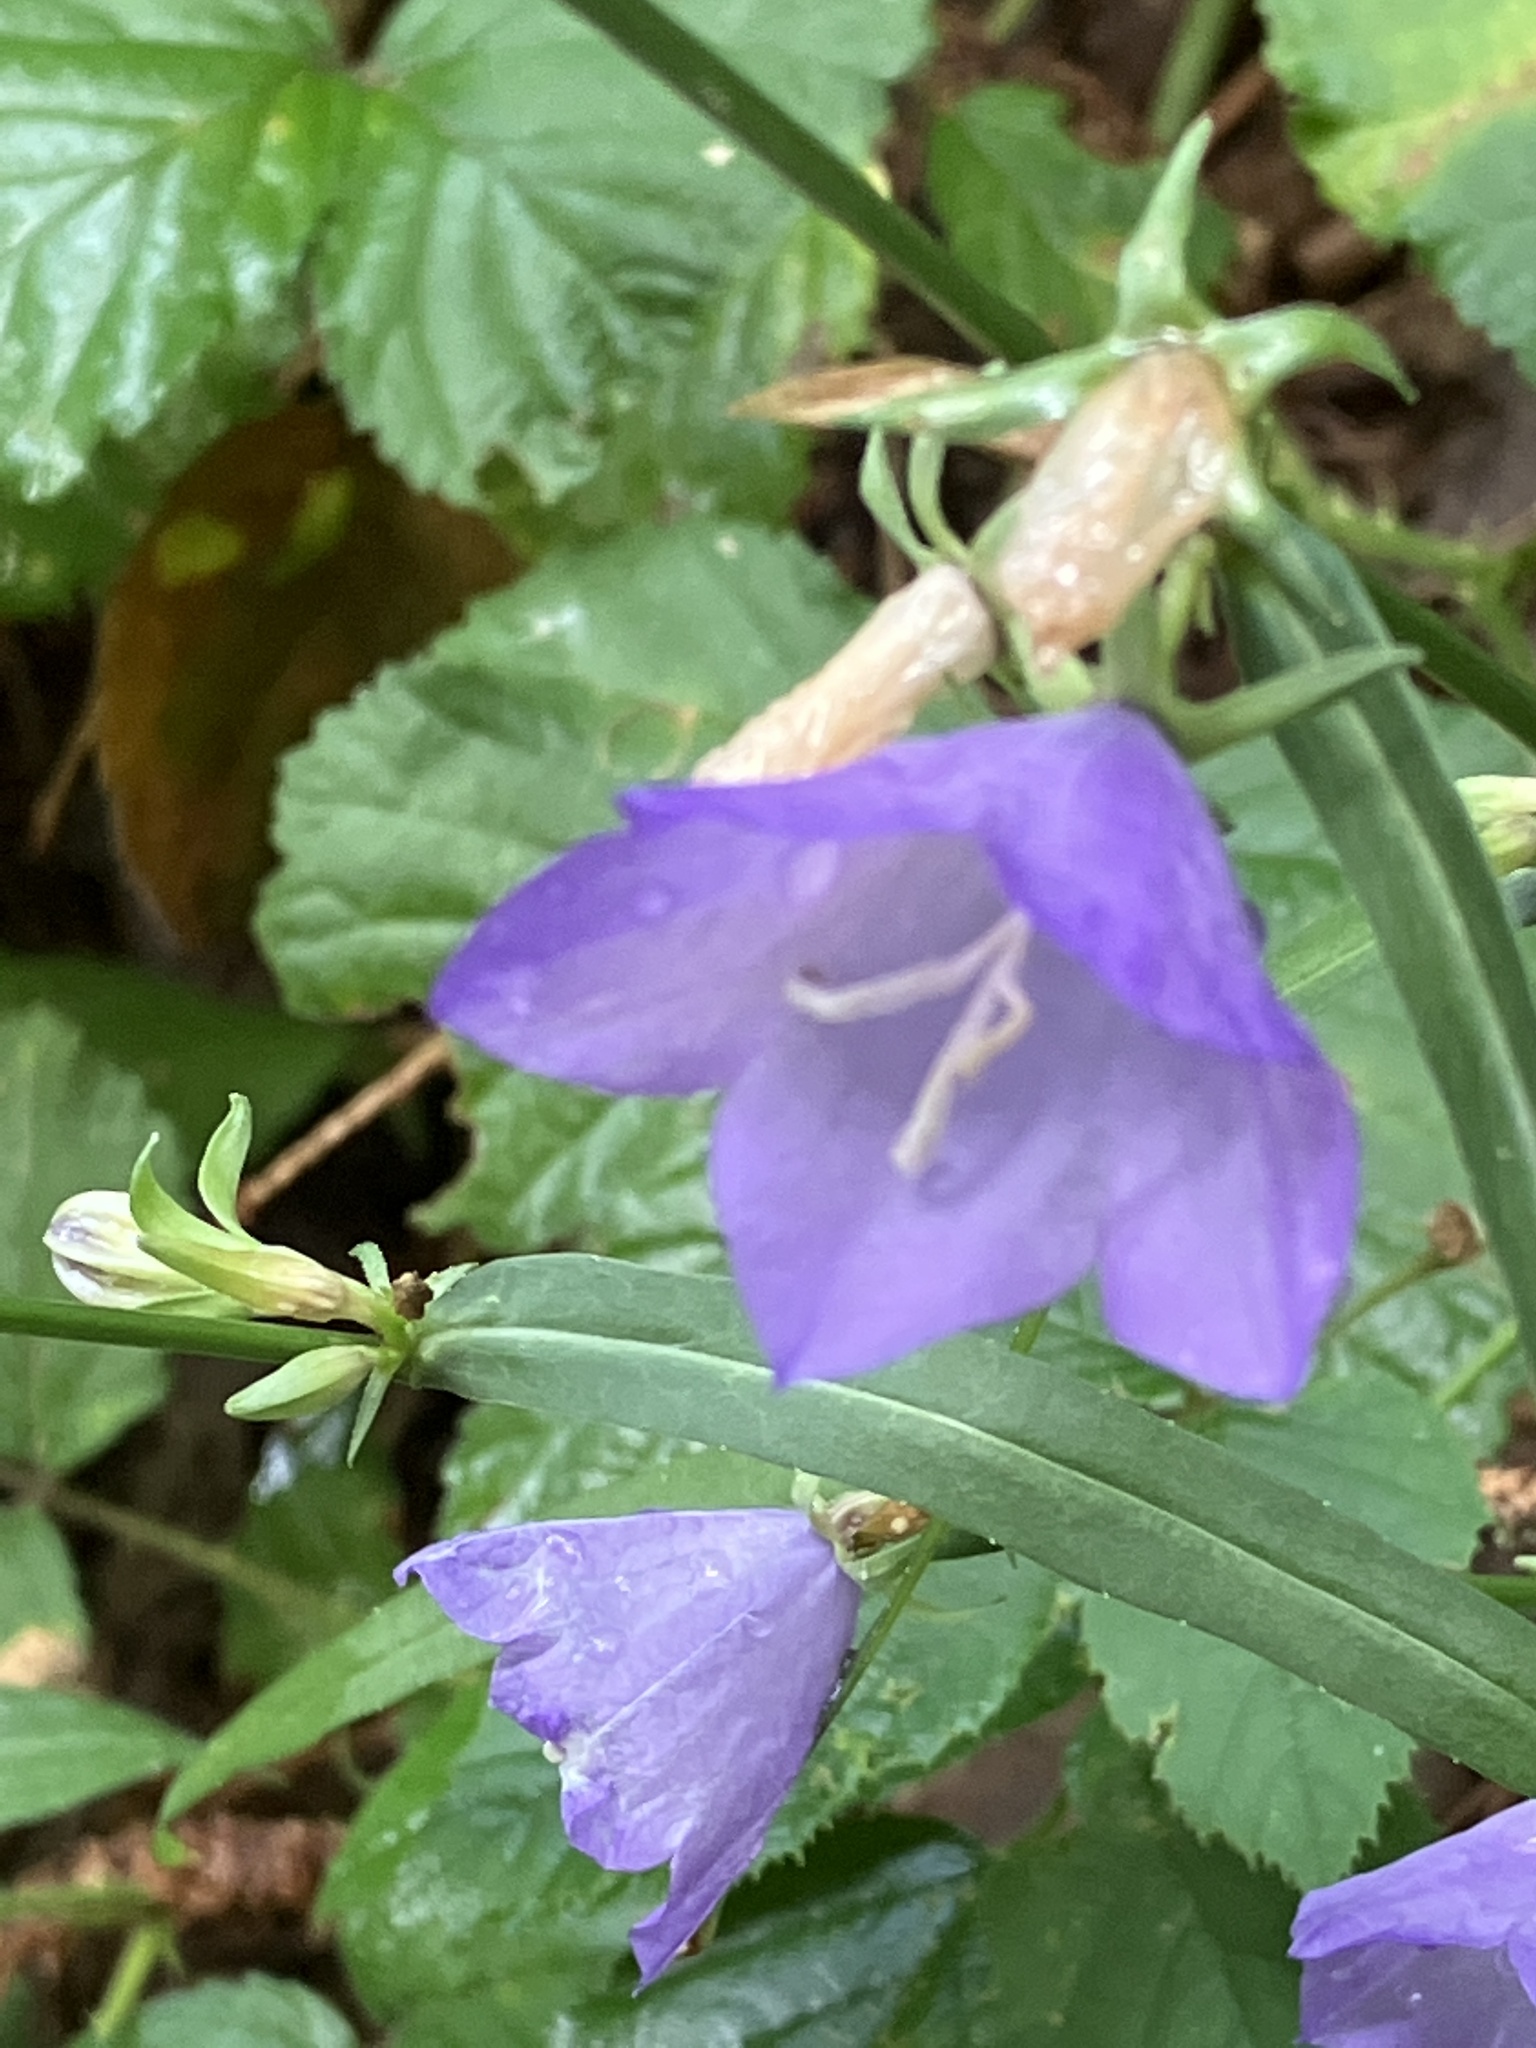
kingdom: Plantae
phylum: Tracheophyta
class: Magnoliopsida
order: Asterales
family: Campanulaceae
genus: Campanula
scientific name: Campanula persicifolia
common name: Peach-leaved bellflower
